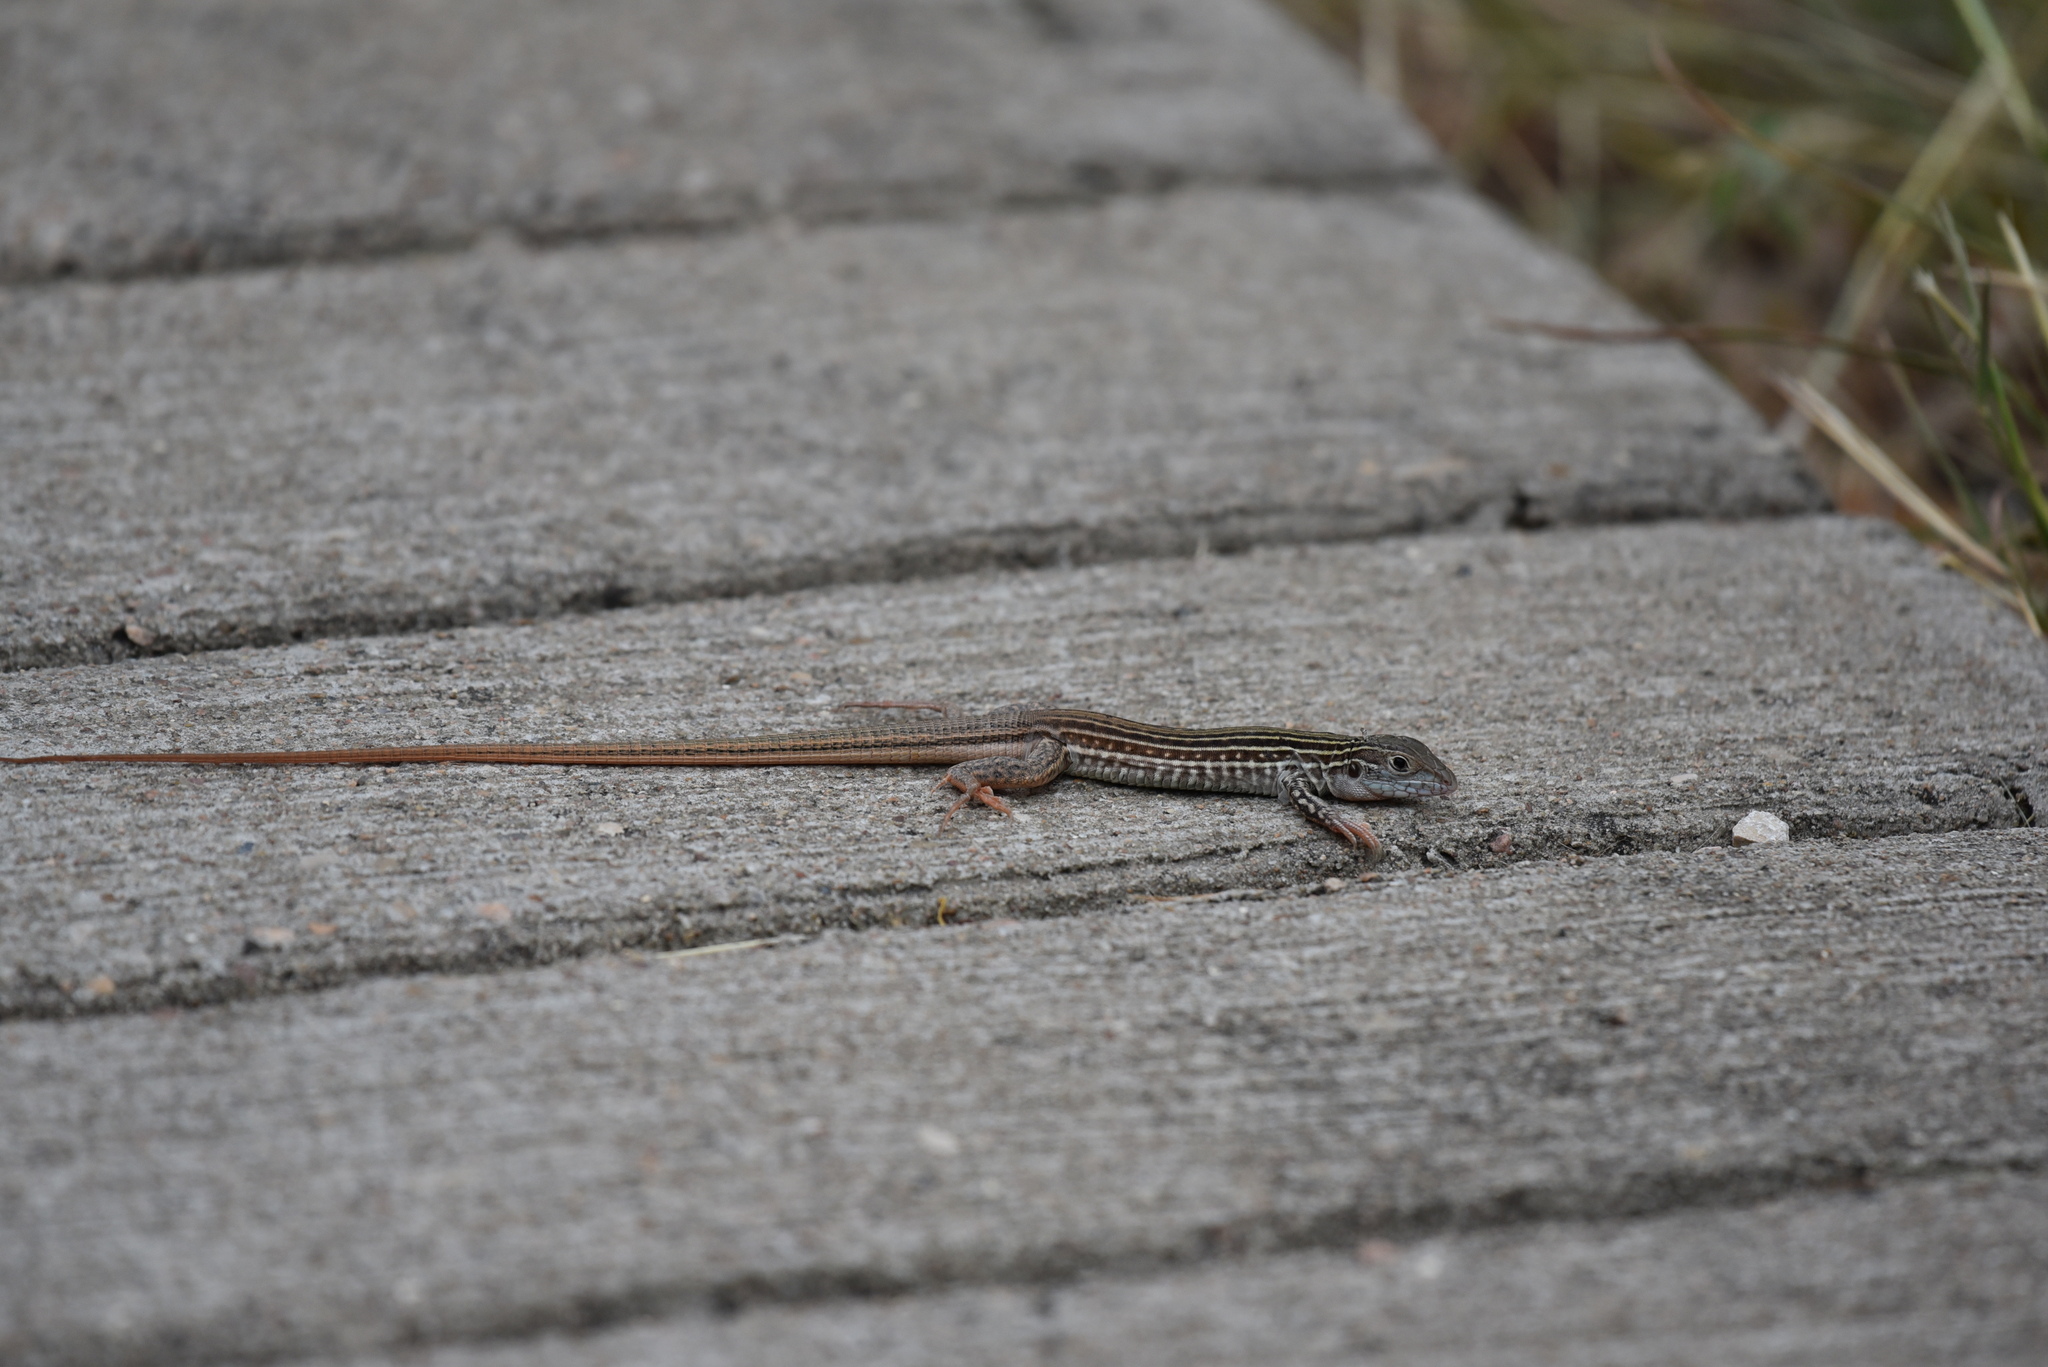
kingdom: Animalia
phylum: Chordata
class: Squamata
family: Teiidae
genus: Aspidoscelis
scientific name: Aspidoscelis gularis
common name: Eastern spotted whiptail
